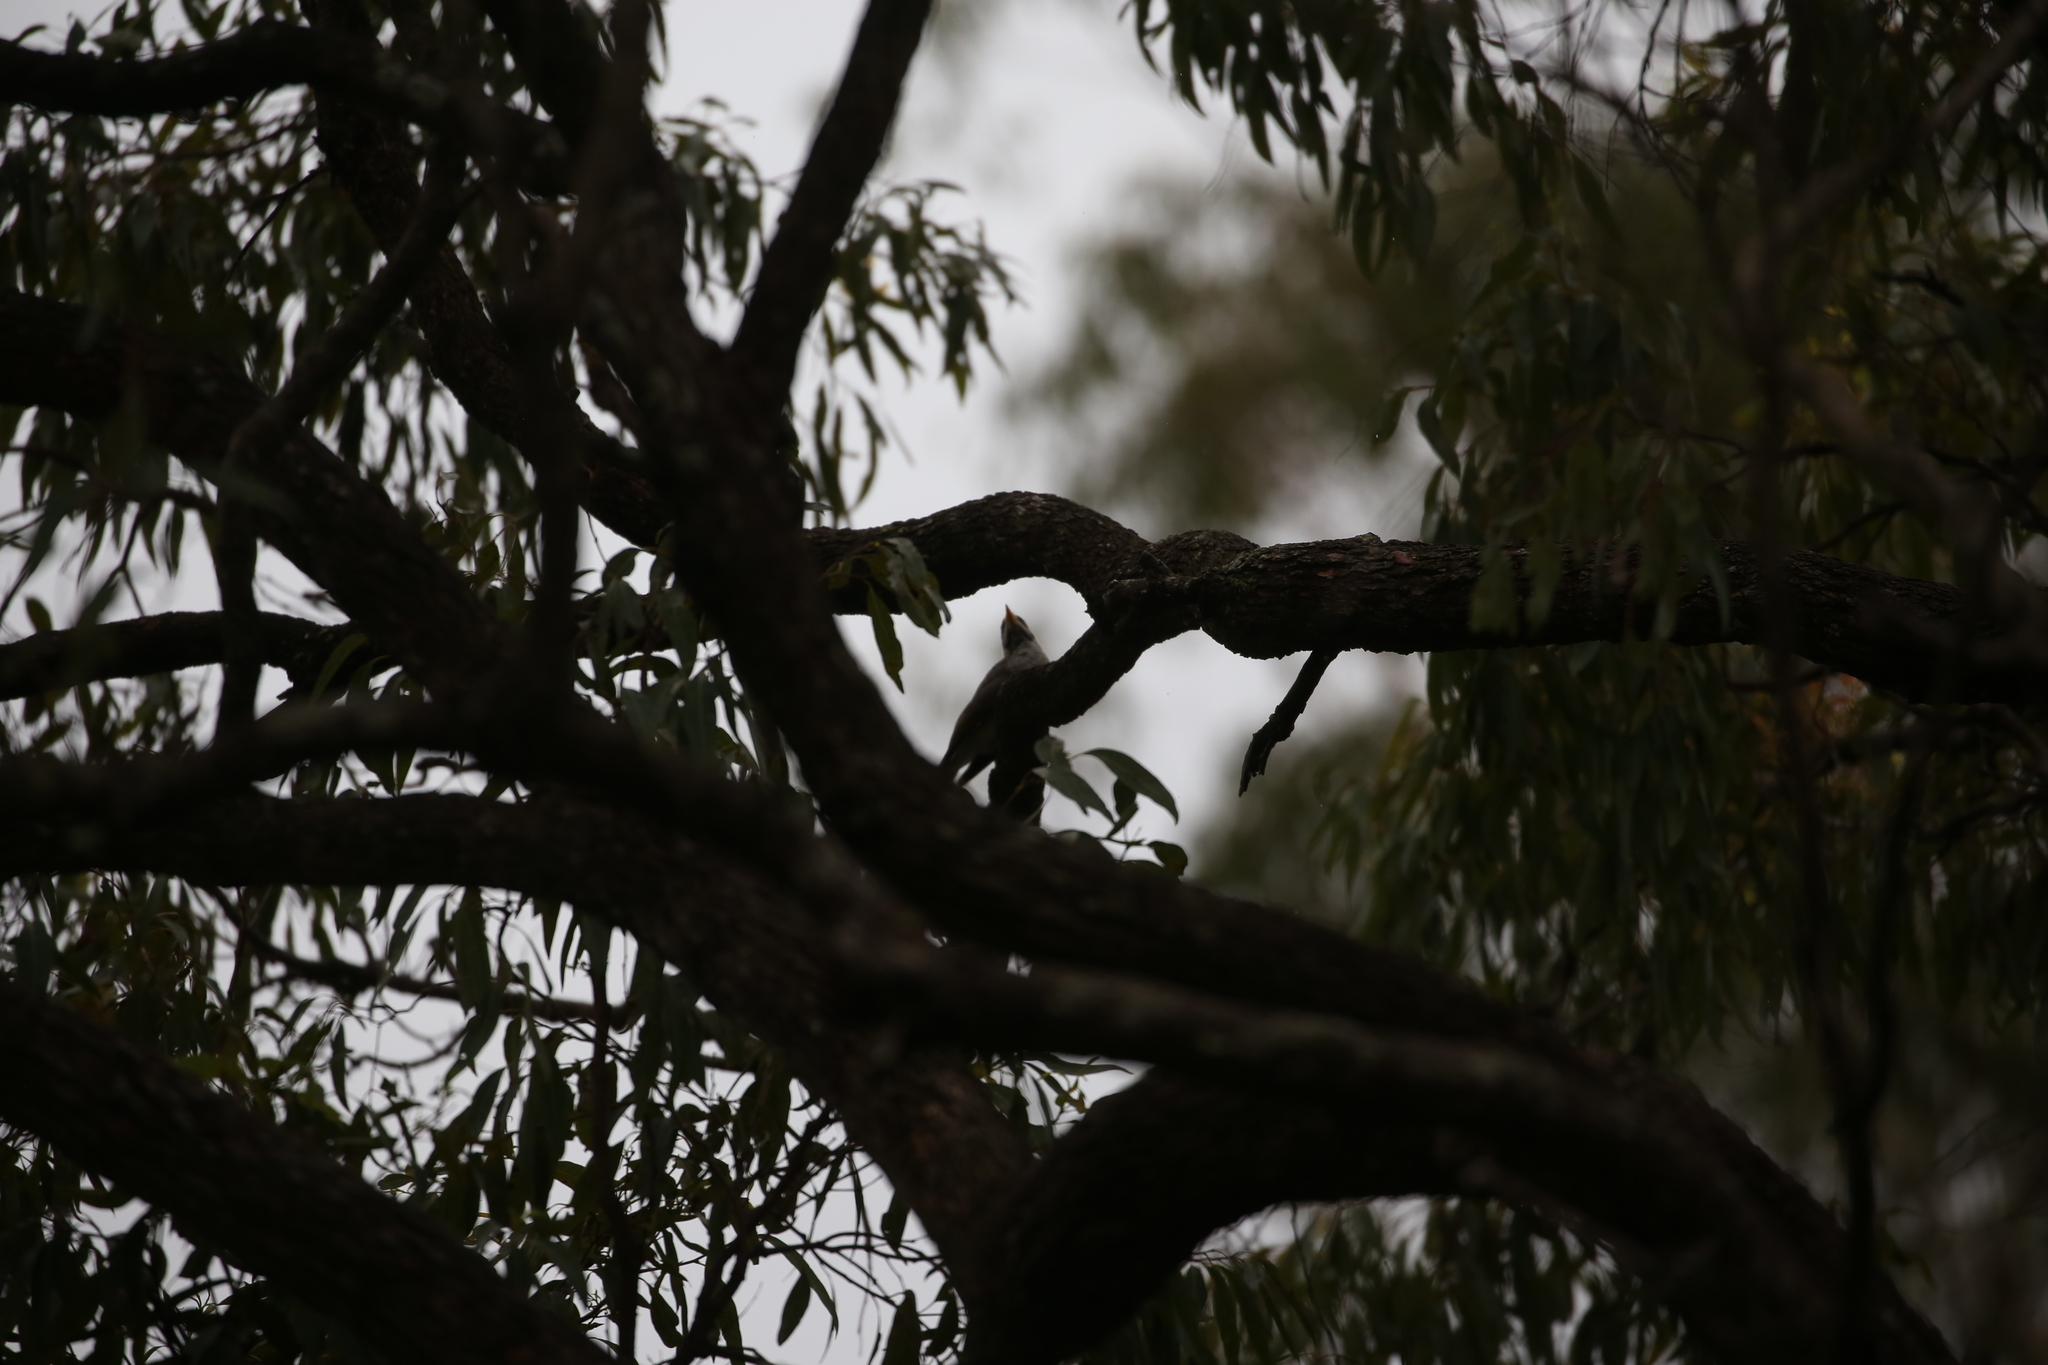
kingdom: Animalia
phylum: Chordata
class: Aves
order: Passeriformes
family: Meliphagidae
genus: Manorina
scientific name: Manorina melanocephala
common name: Noisy miner
